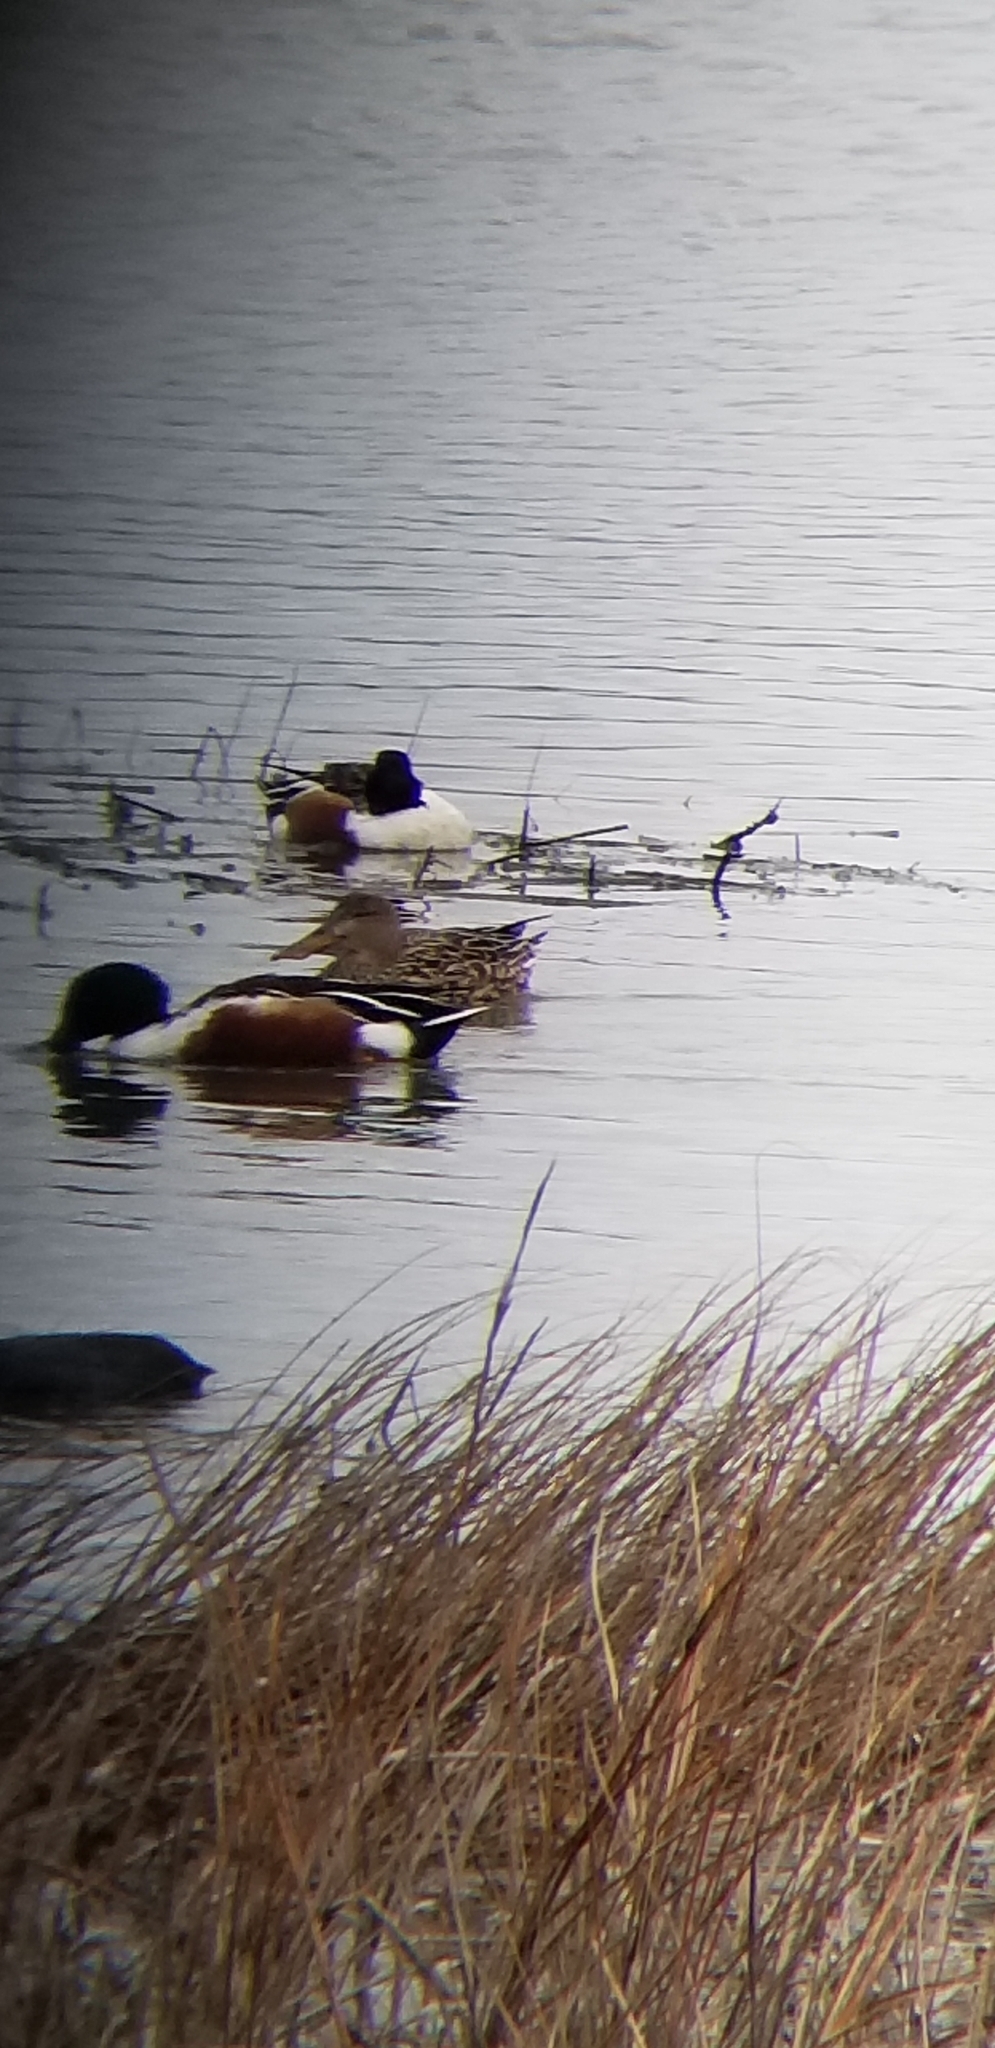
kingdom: Animalia
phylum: Chordata
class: Aves
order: Anseriformes
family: Anatidae
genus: Spatula
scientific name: Spatula clypeata
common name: Northern shoveler
